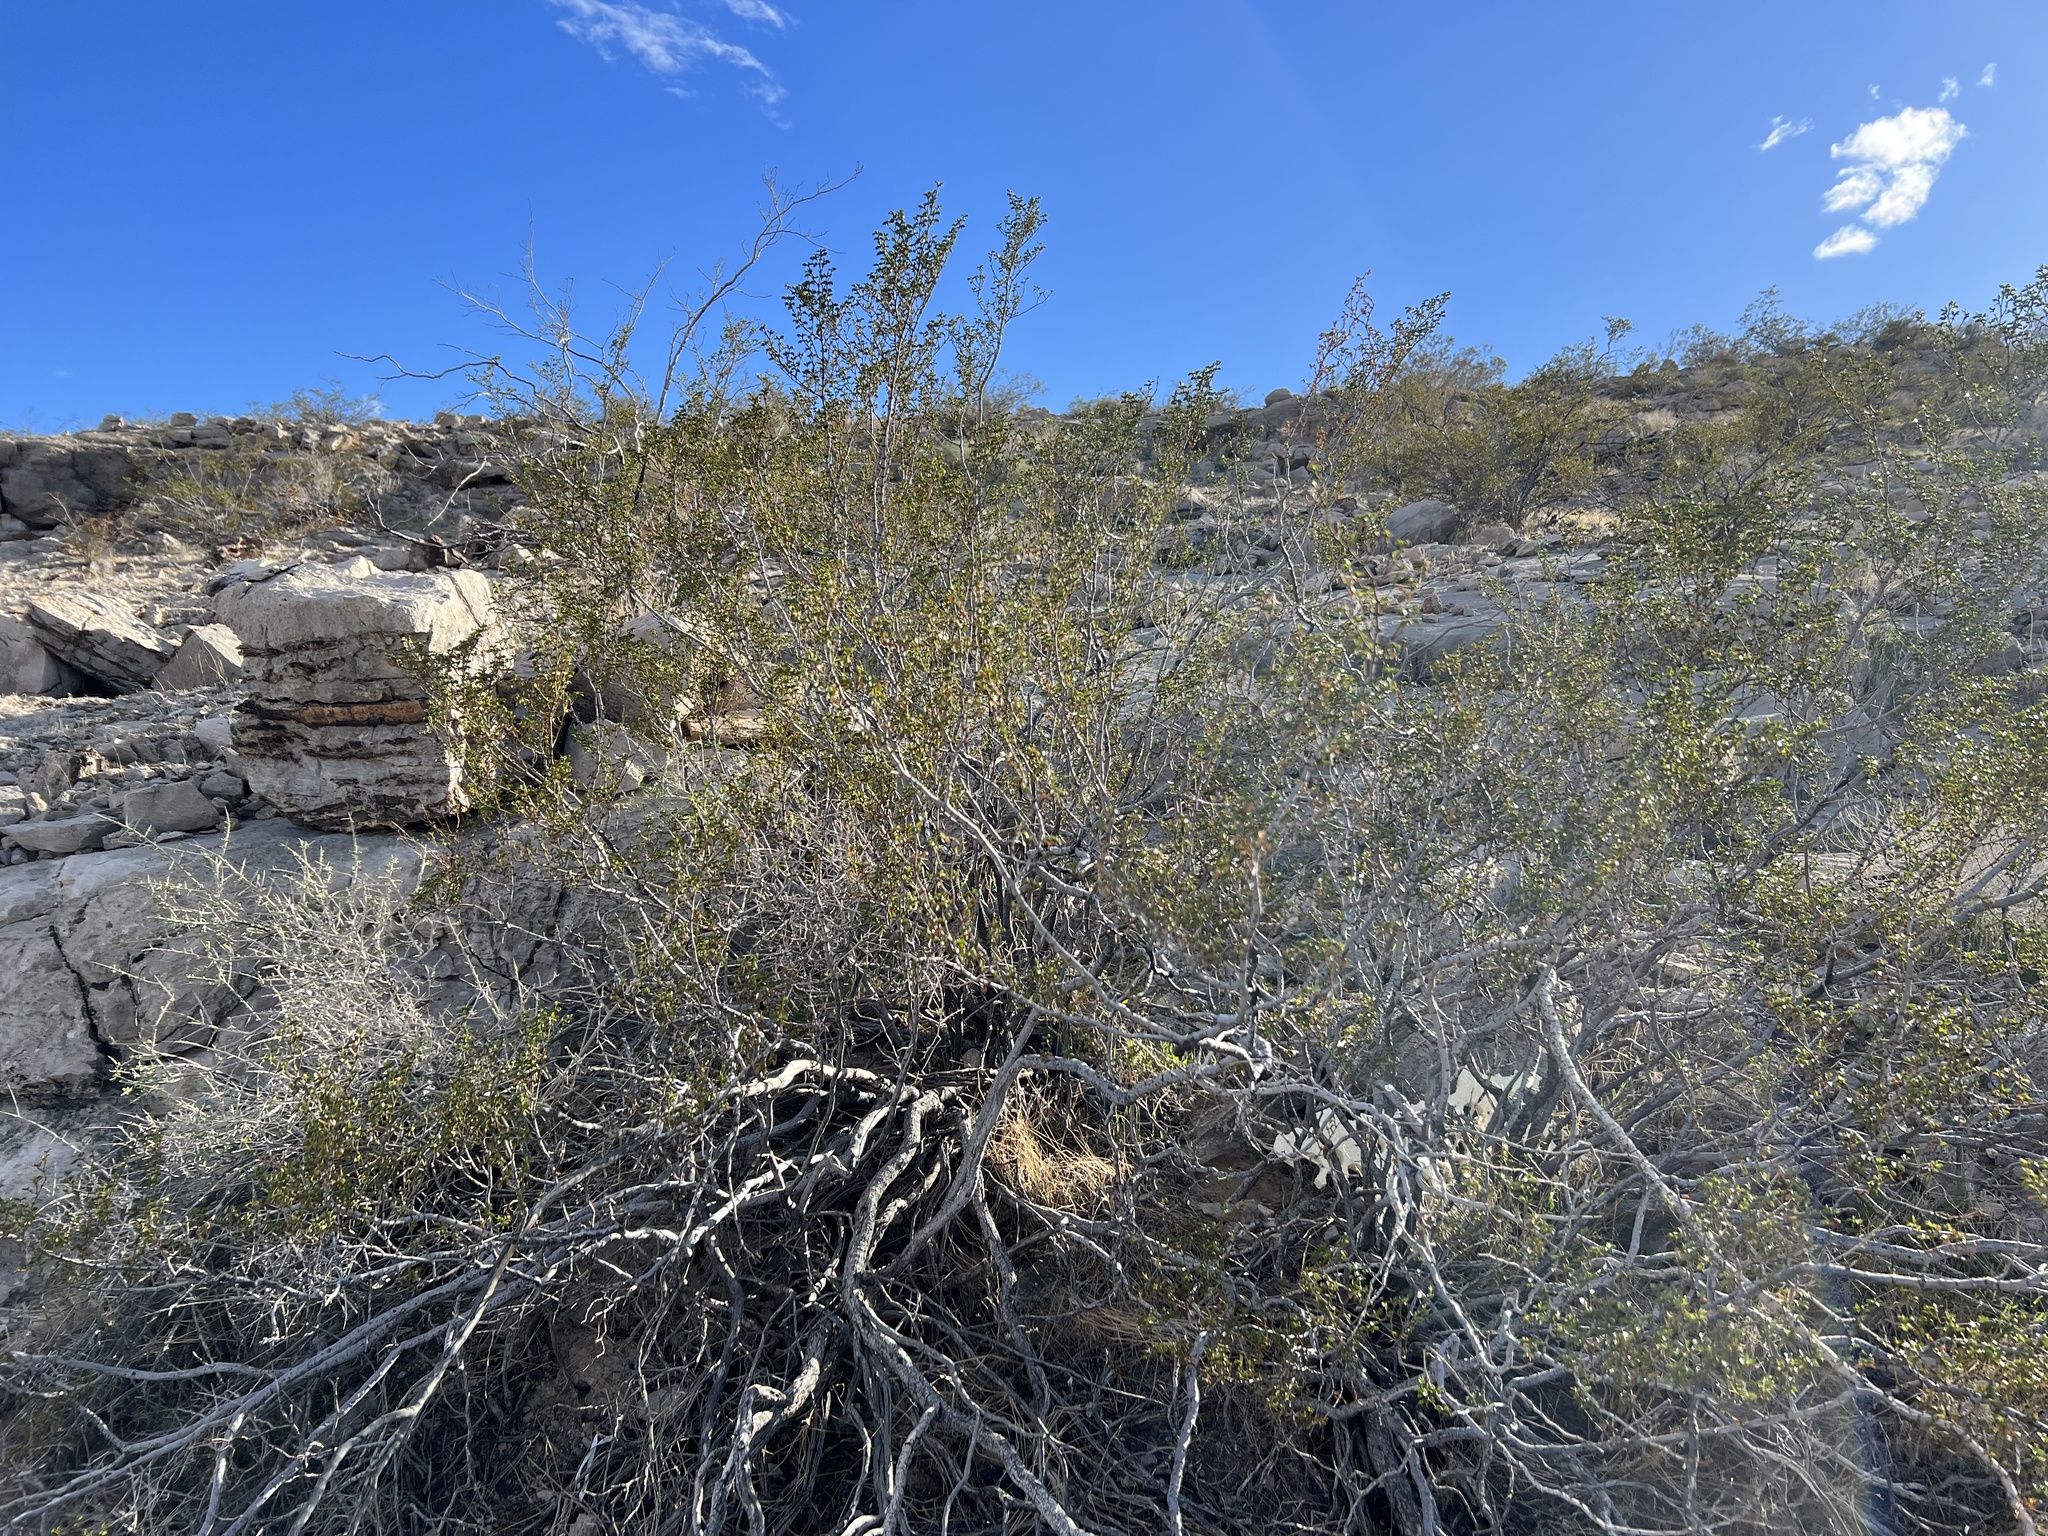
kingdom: Plantae
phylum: Tracheophyta
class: Magnoliopsida
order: Zygophyllales
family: Zygophyllaceae
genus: Larrea
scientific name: Larrea tridentata
